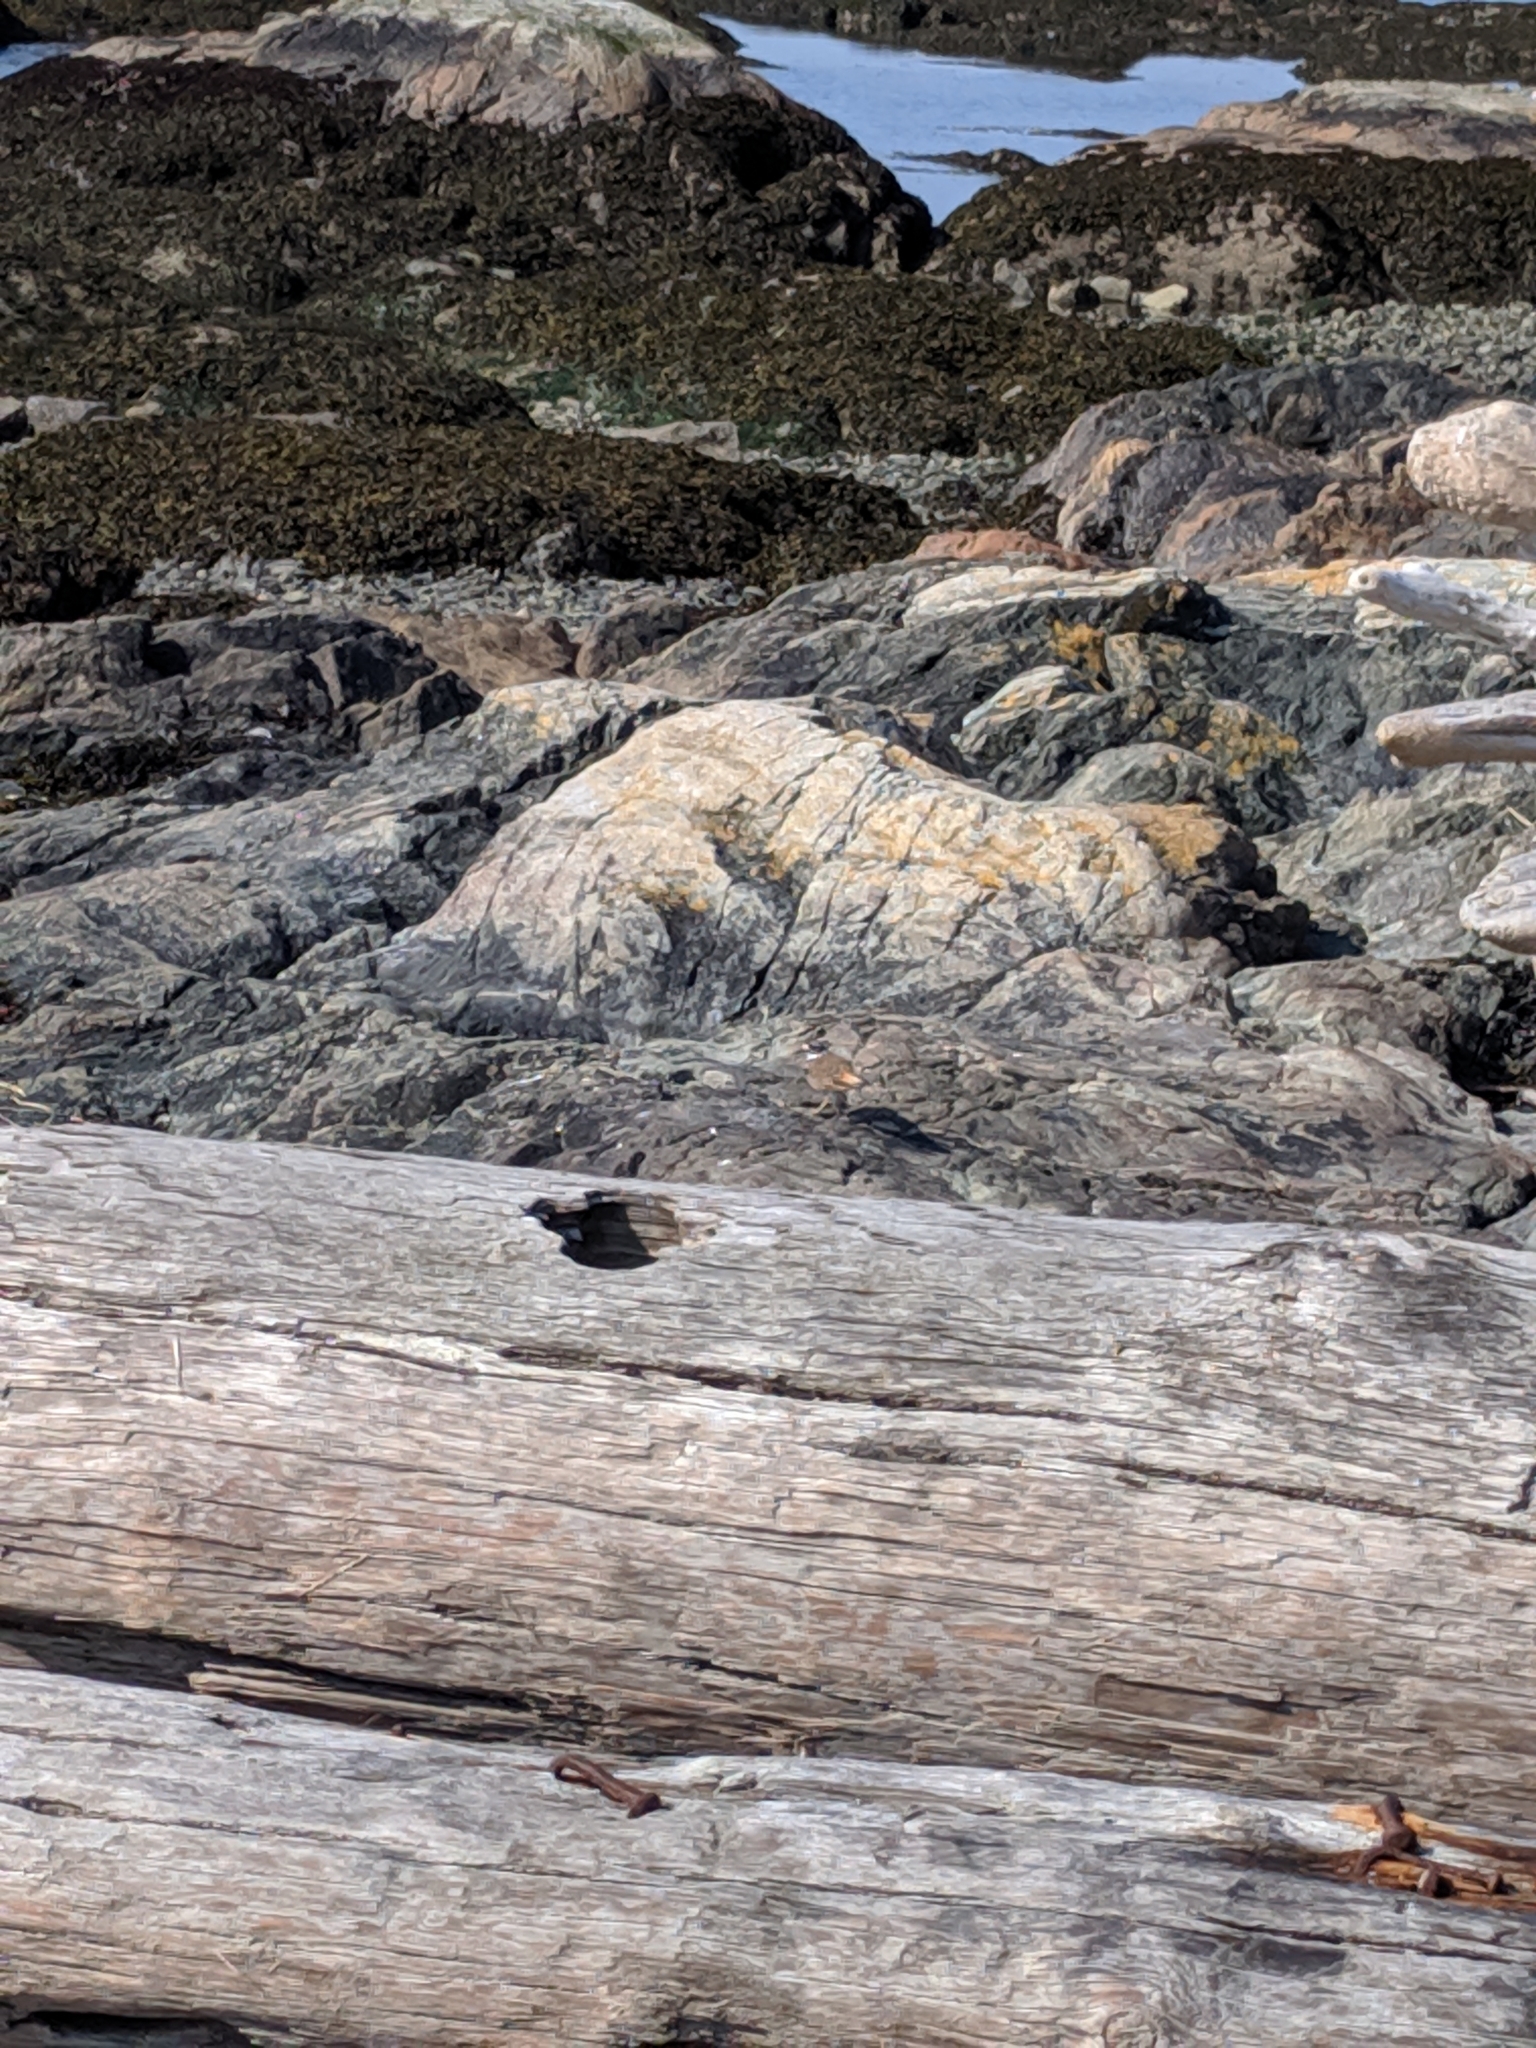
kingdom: Animalia
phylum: Chordata
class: Aves
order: Charadriiformes
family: Charadriidae
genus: Charadrius
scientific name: Charadrius vociferus
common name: Killdeer
